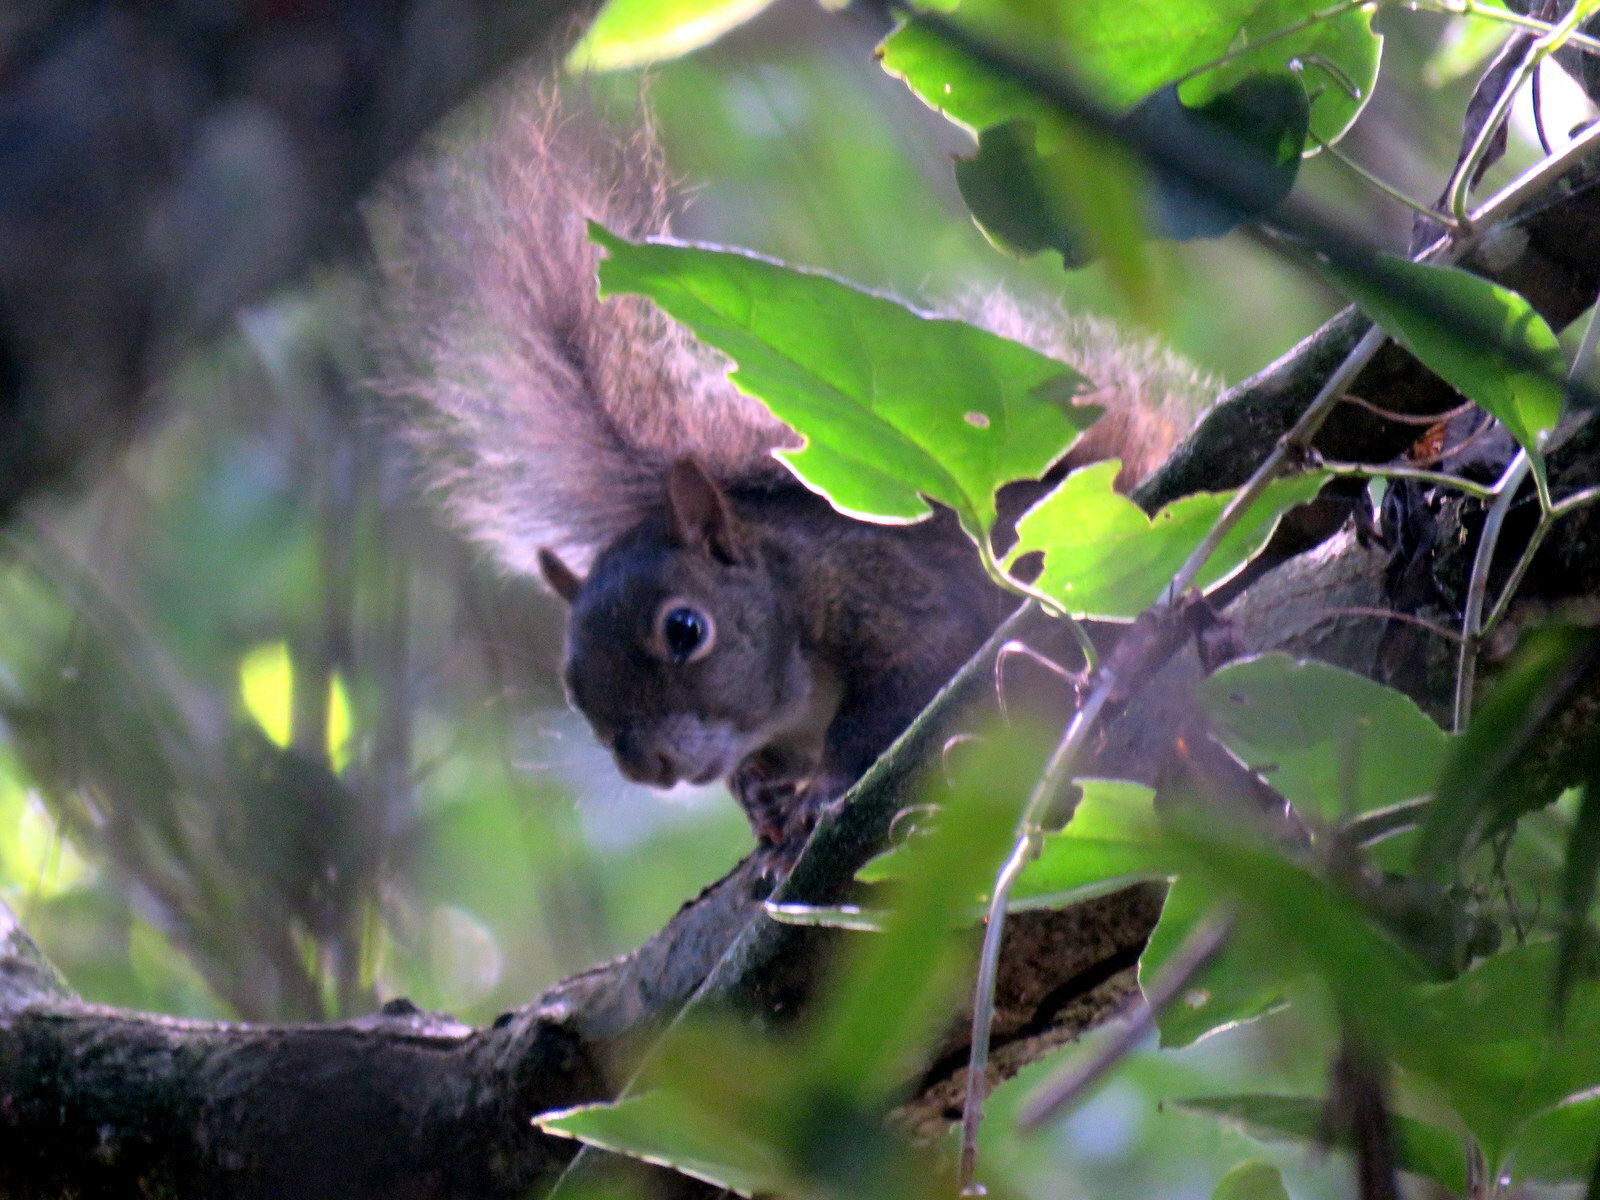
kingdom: Animalia
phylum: Chordata
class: Mammalia
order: Rodentia
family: Sciuridae
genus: Sciurus
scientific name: Sciurus aestuans
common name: Guianan squirrel
